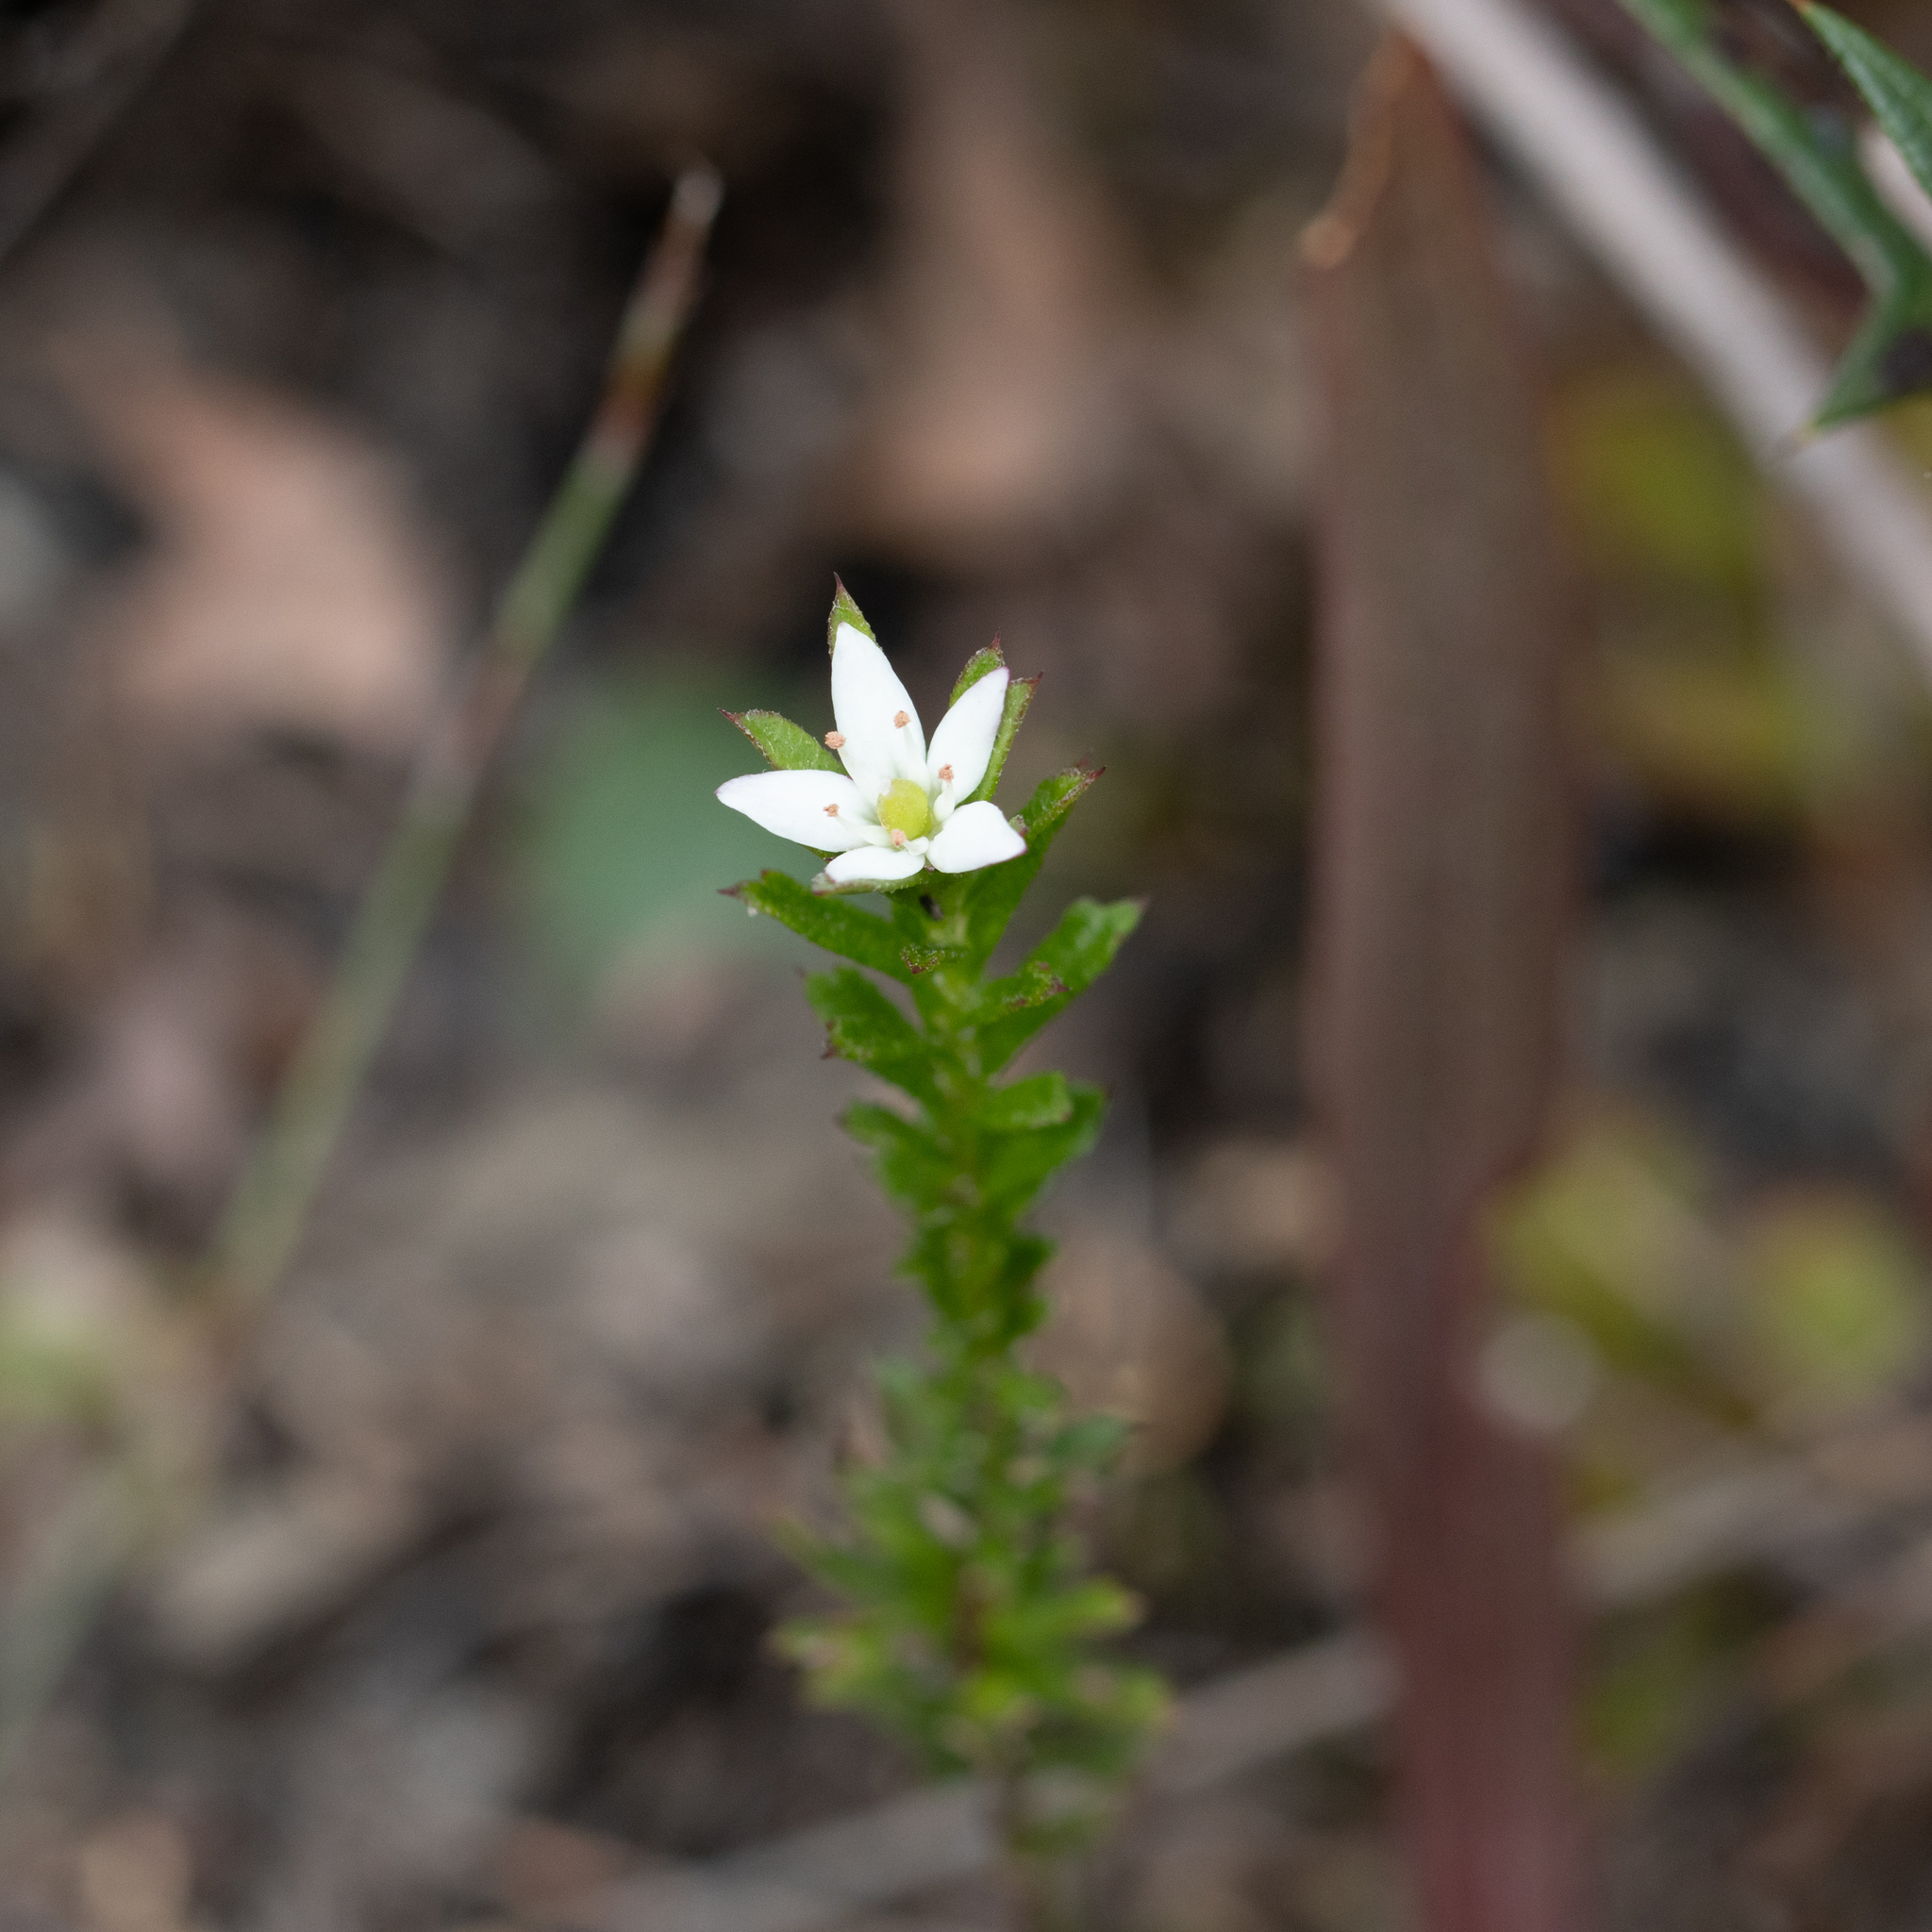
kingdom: Plantae
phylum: Tracheophyta
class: Magnoliopsida
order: Apiales
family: Pittosporaceae
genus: Rhytidosporum
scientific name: Rhytidosporum procumbens
